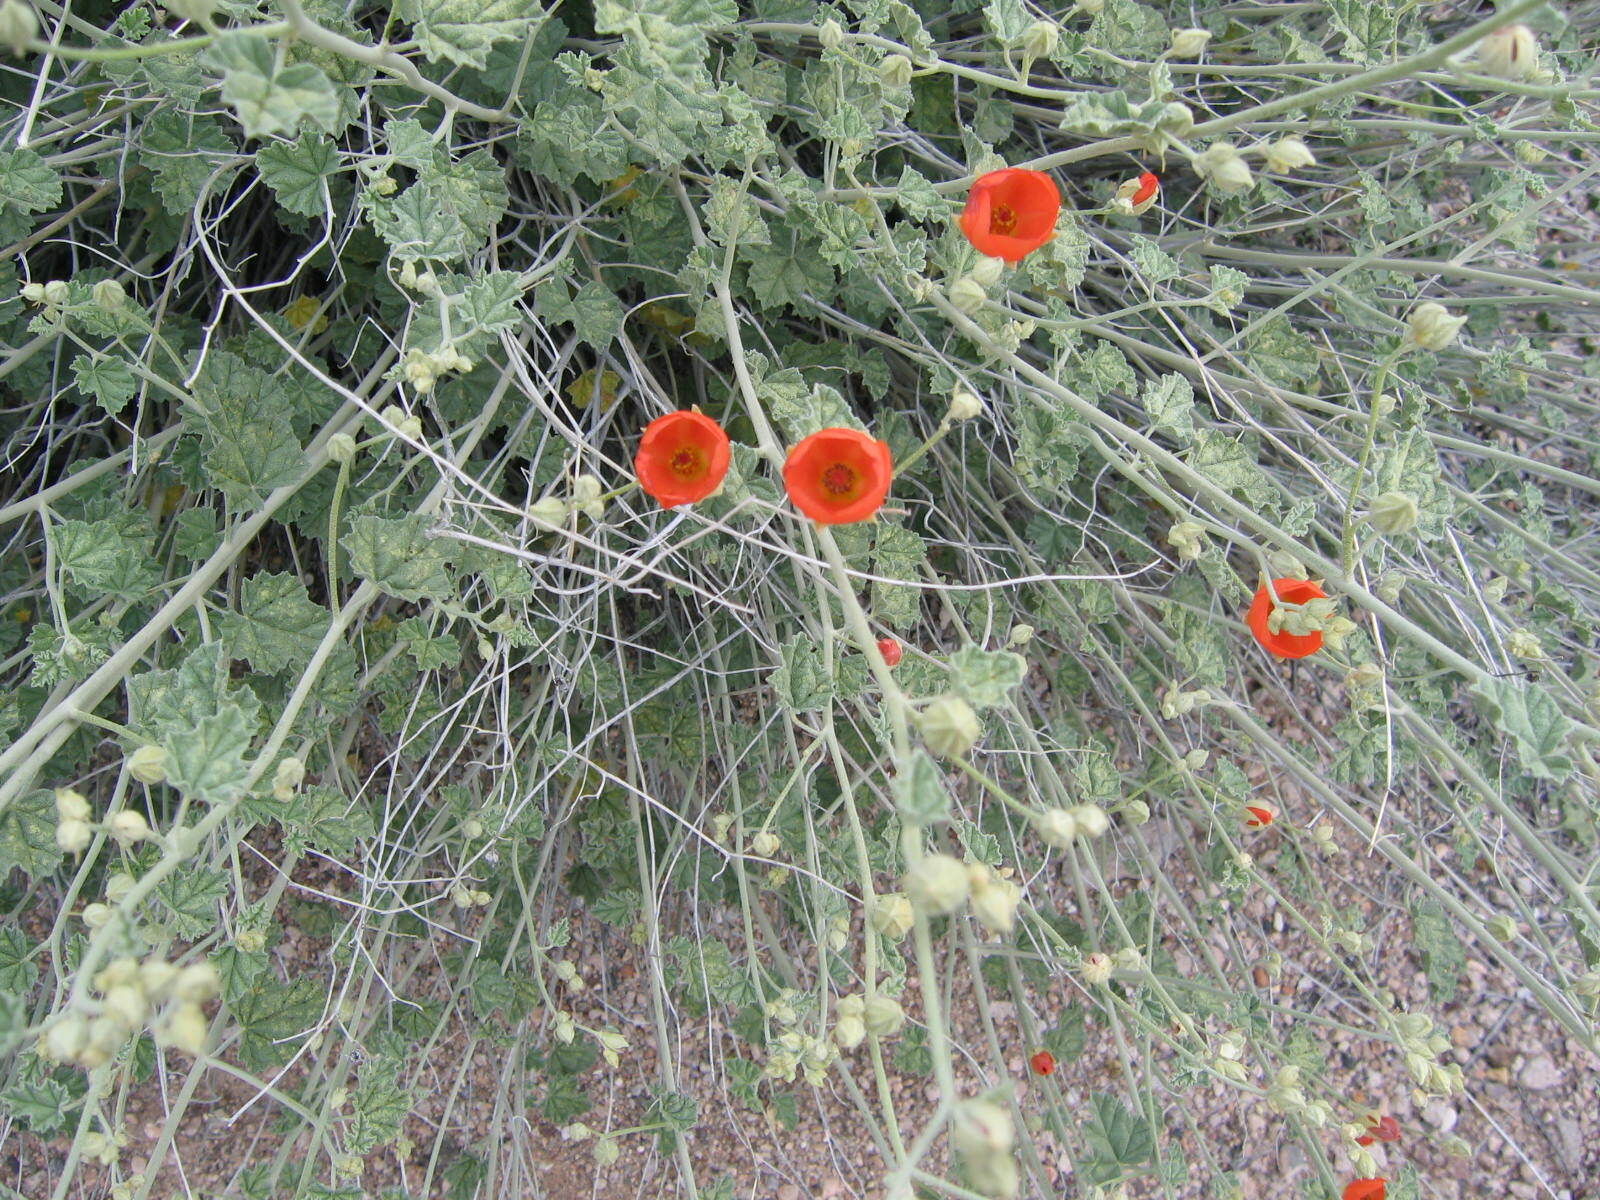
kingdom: Plantae
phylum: Tracheophyta
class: Magnoliopsida
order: Malvales
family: Malvaceae
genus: Sphaeralcea
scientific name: Sphaeralcea ambigua
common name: Apricot globe-mallow
